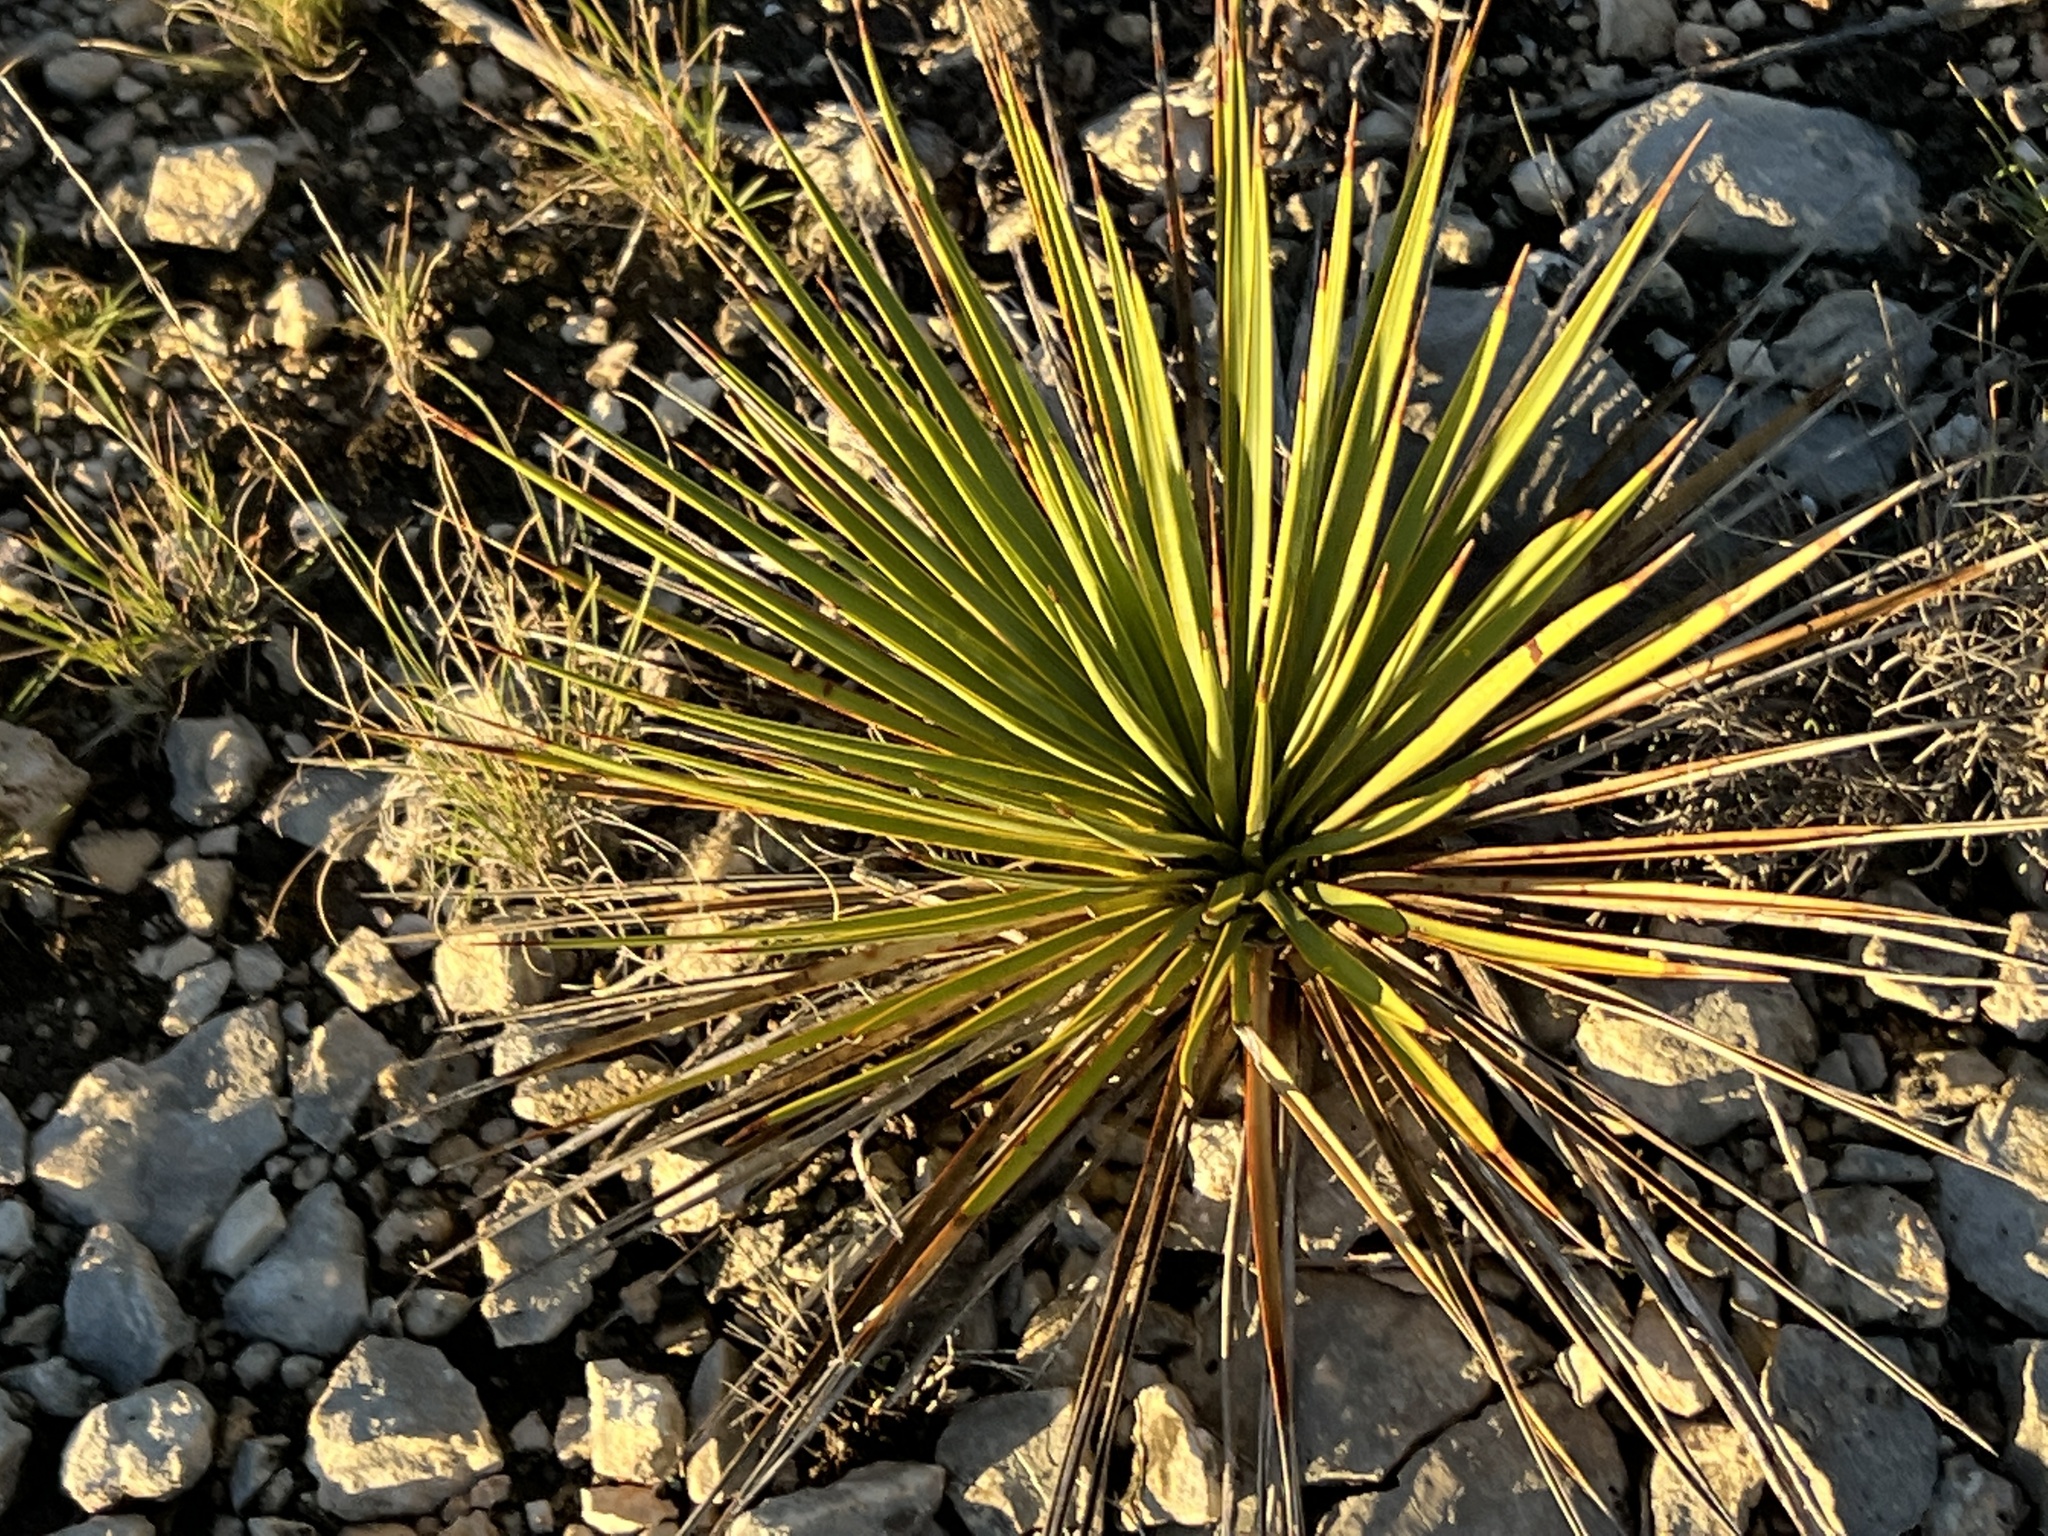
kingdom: Plantae
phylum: Tracheophyta
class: Liliopsida
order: Asparagales
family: Asparagaceae
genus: Yucca
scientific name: Yucca reverchonii
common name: San angelo yucca
